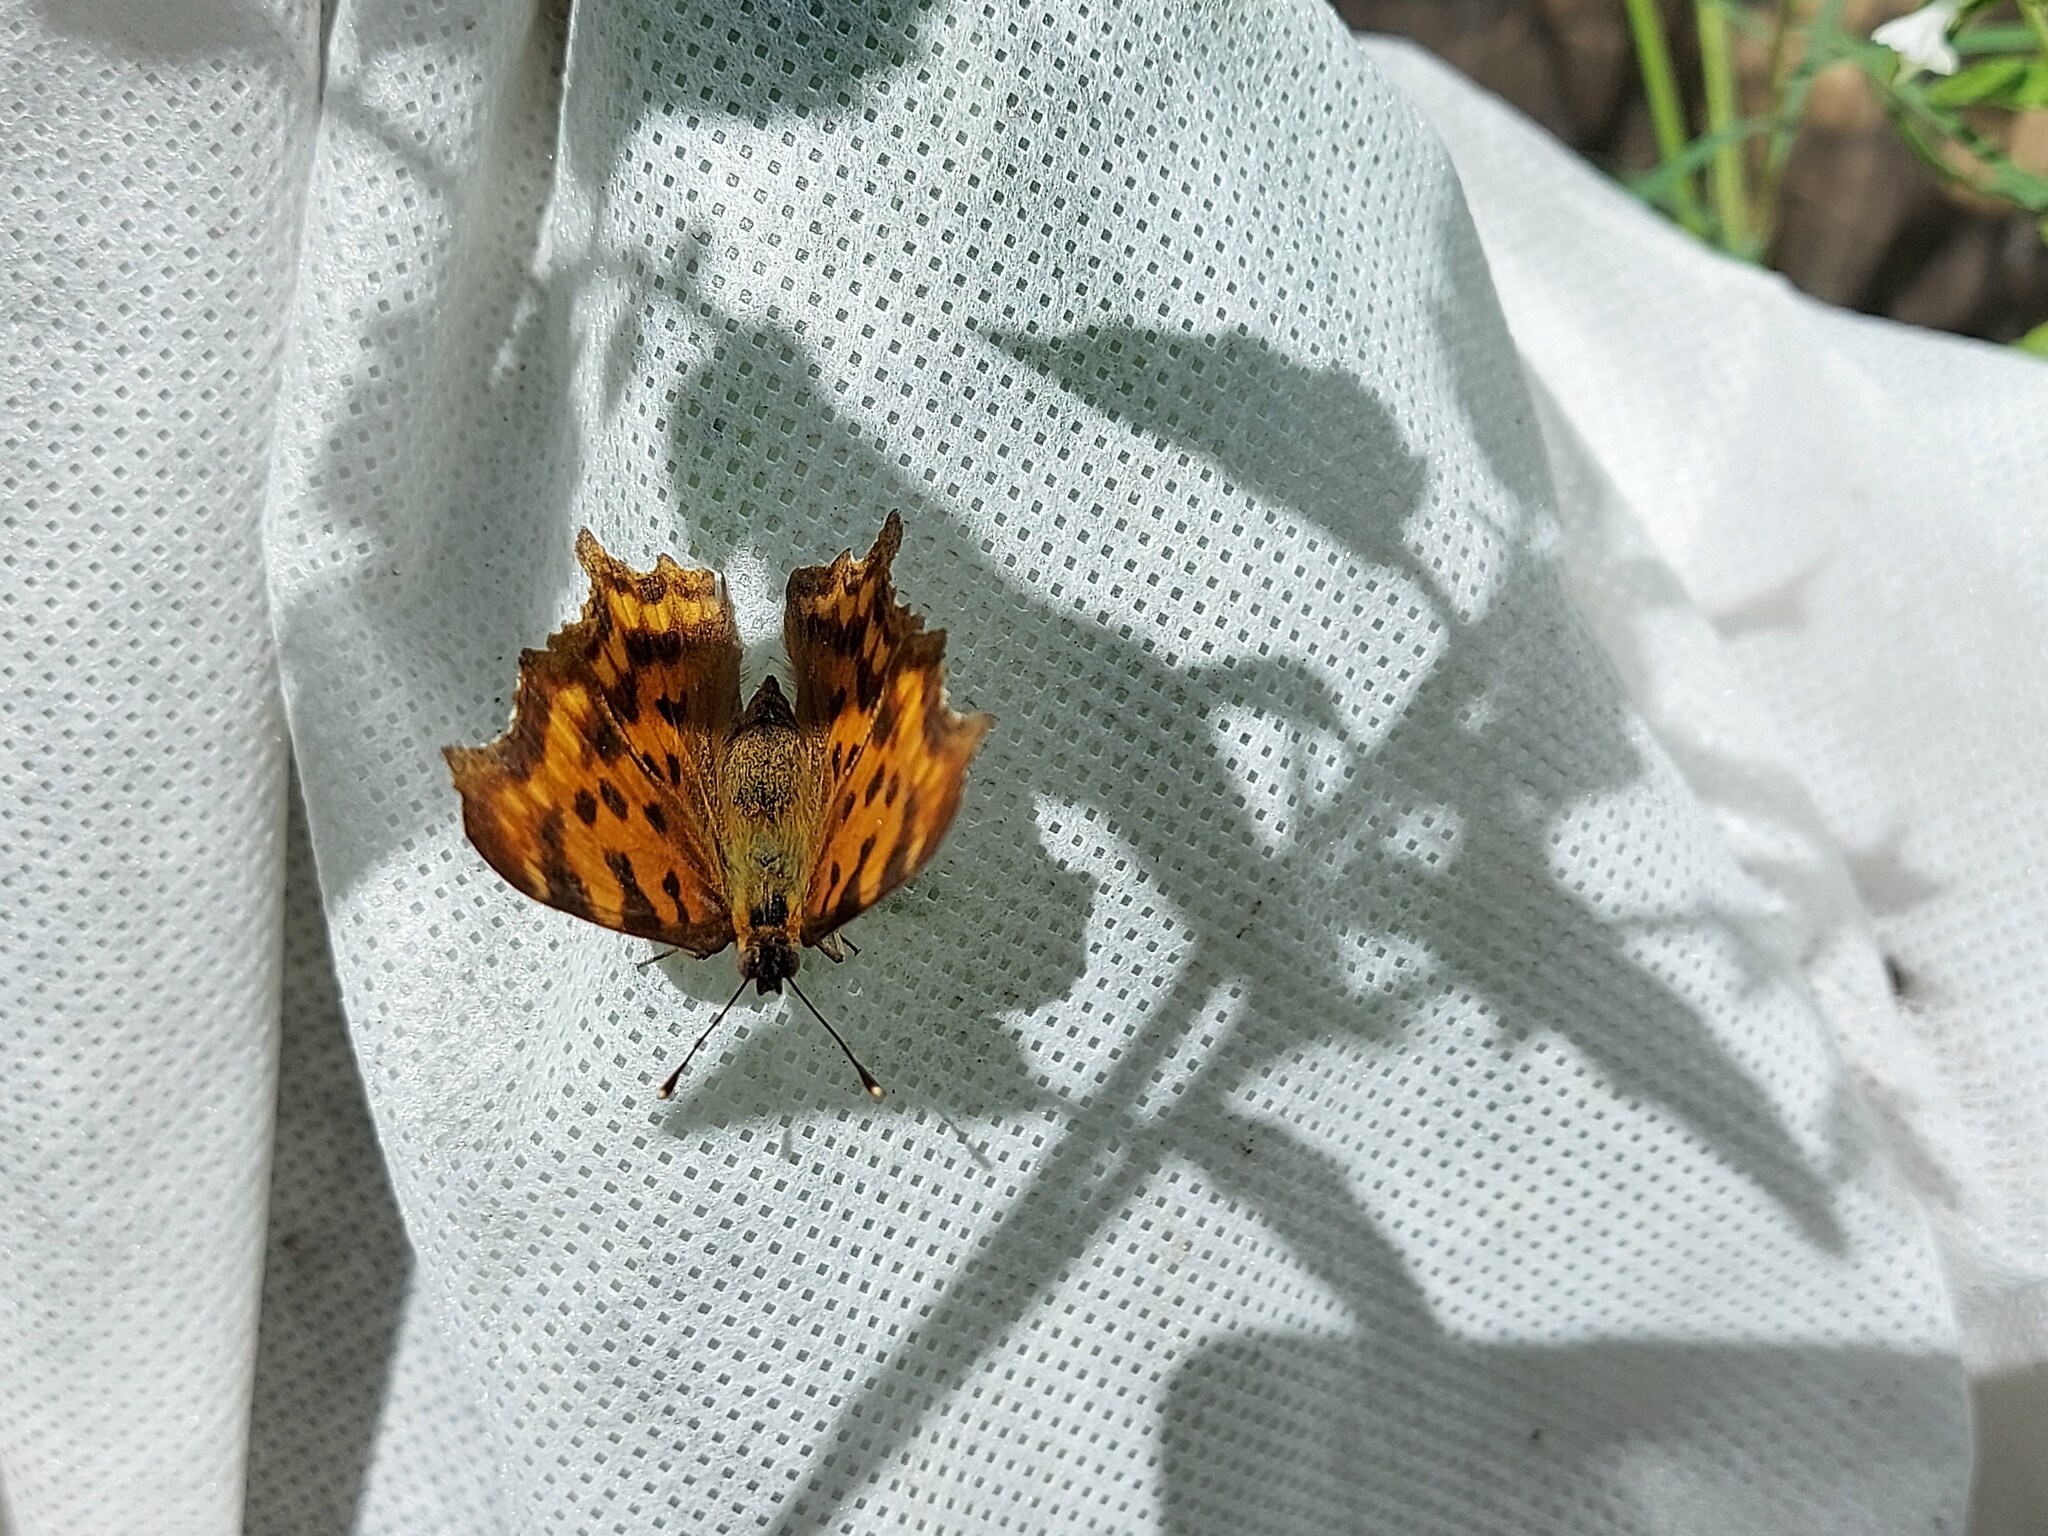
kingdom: Animalia
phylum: Arthropoda
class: Insecta
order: Lepidoptera
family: Nymphalidae
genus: Polygonia
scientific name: Polygonia c-album
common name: Comma
